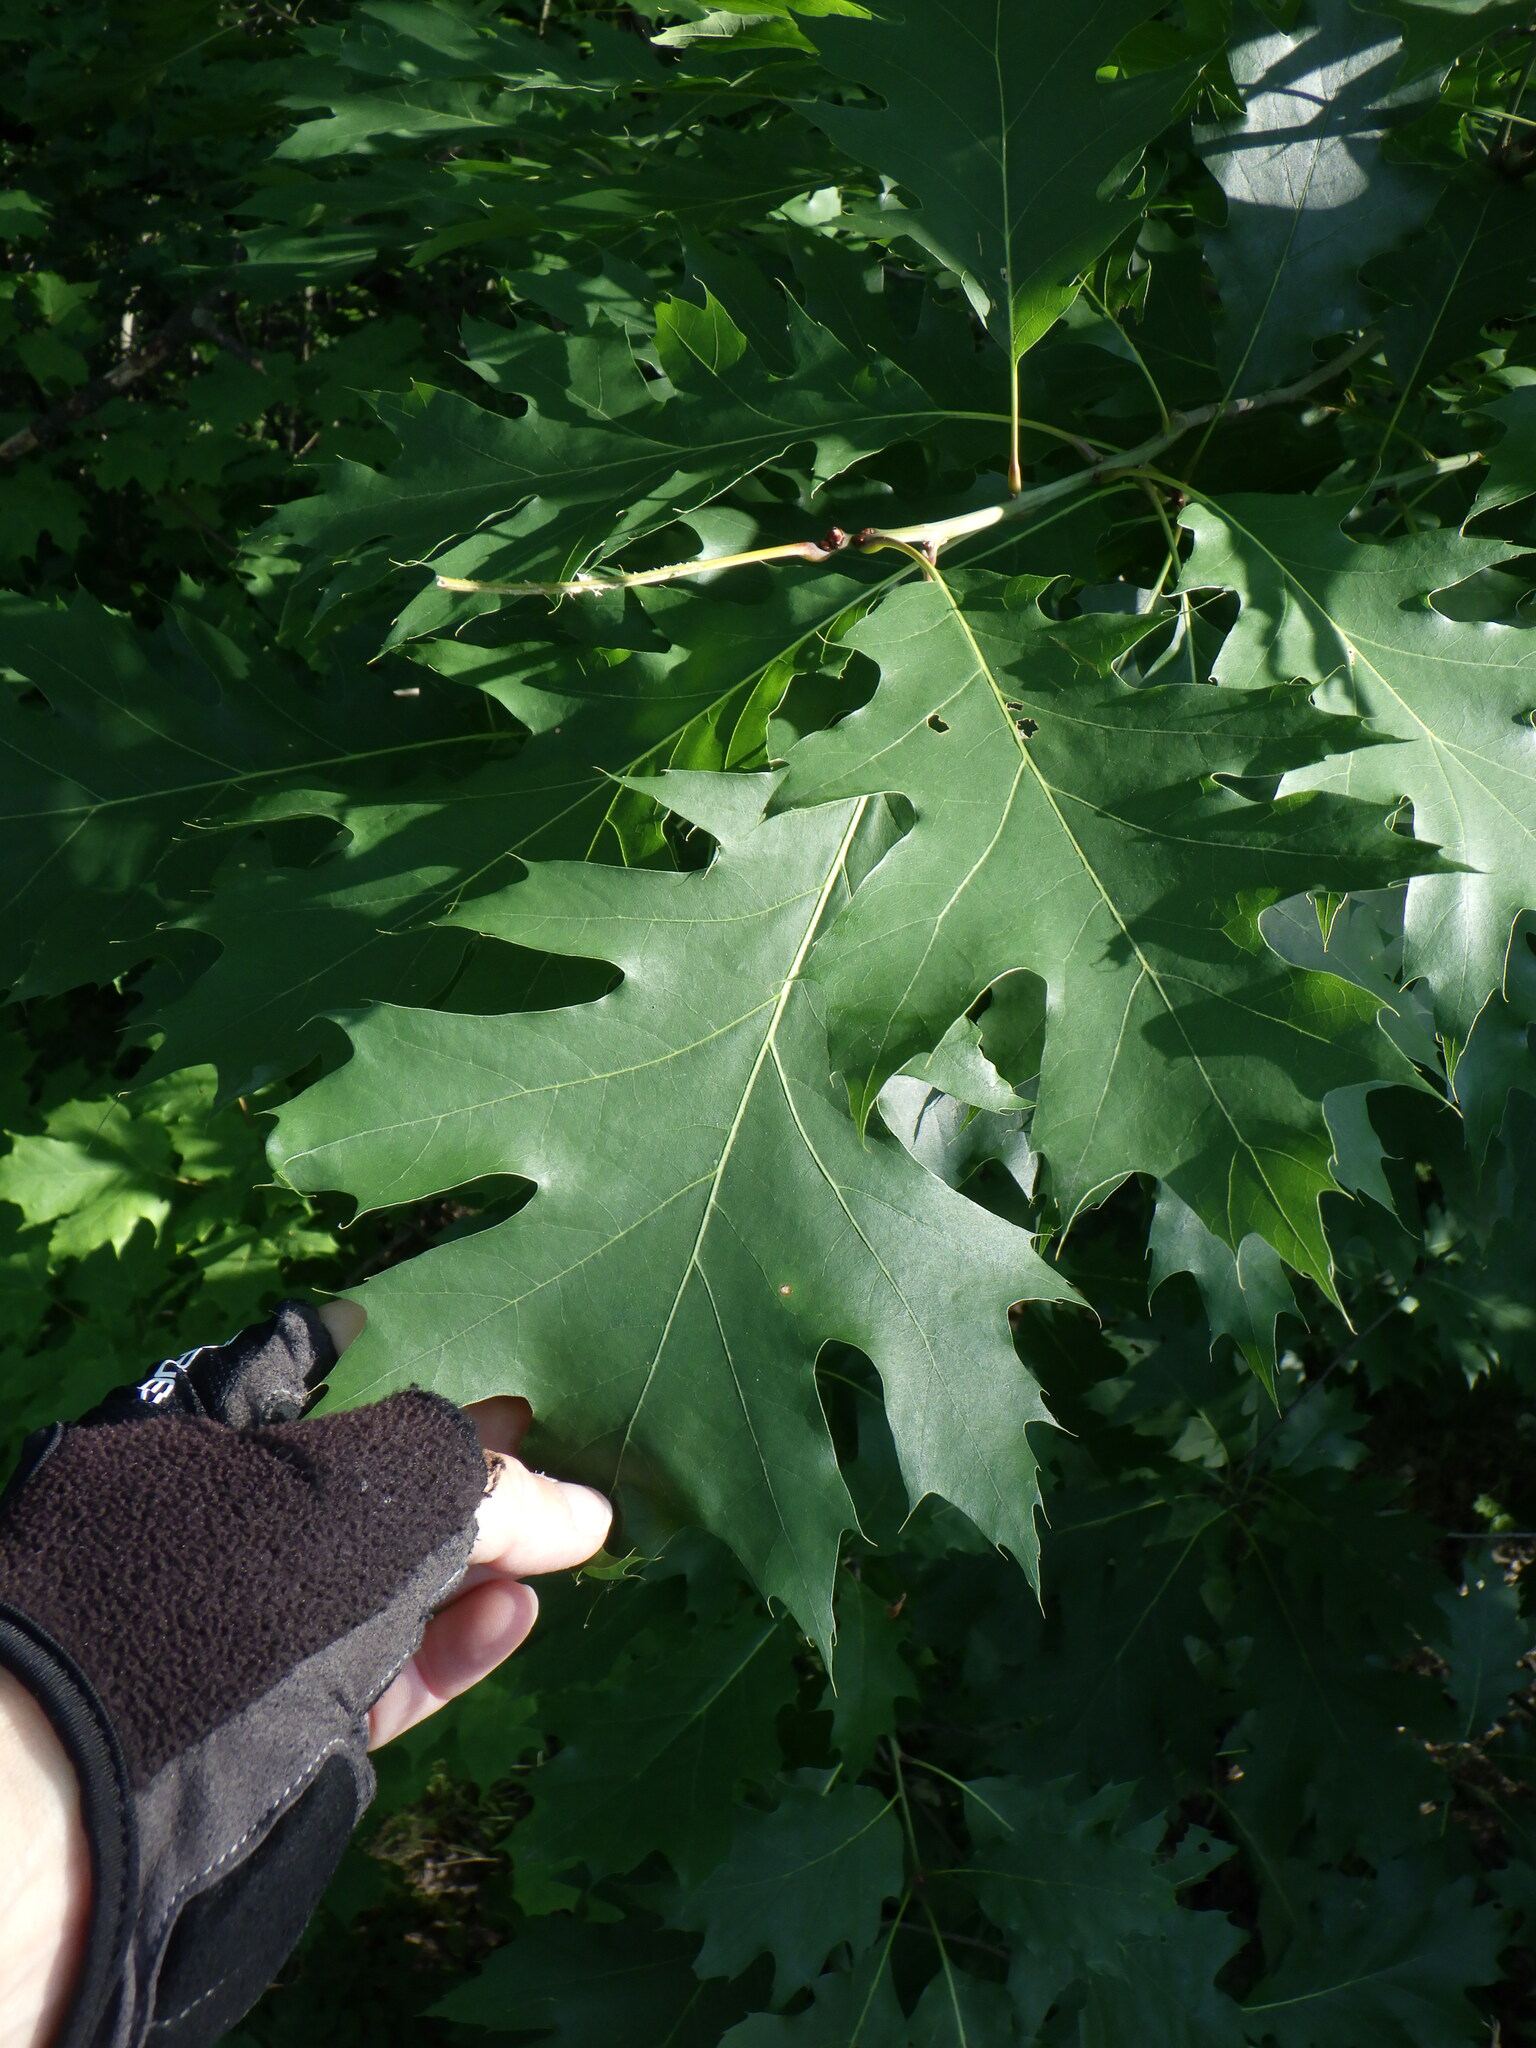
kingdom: Plantae
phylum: Tracheophyta
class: Magnoliopsida
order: Fagales
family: Fagaceae
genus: Quercus
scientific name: Quercus rubra
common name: Red oak
